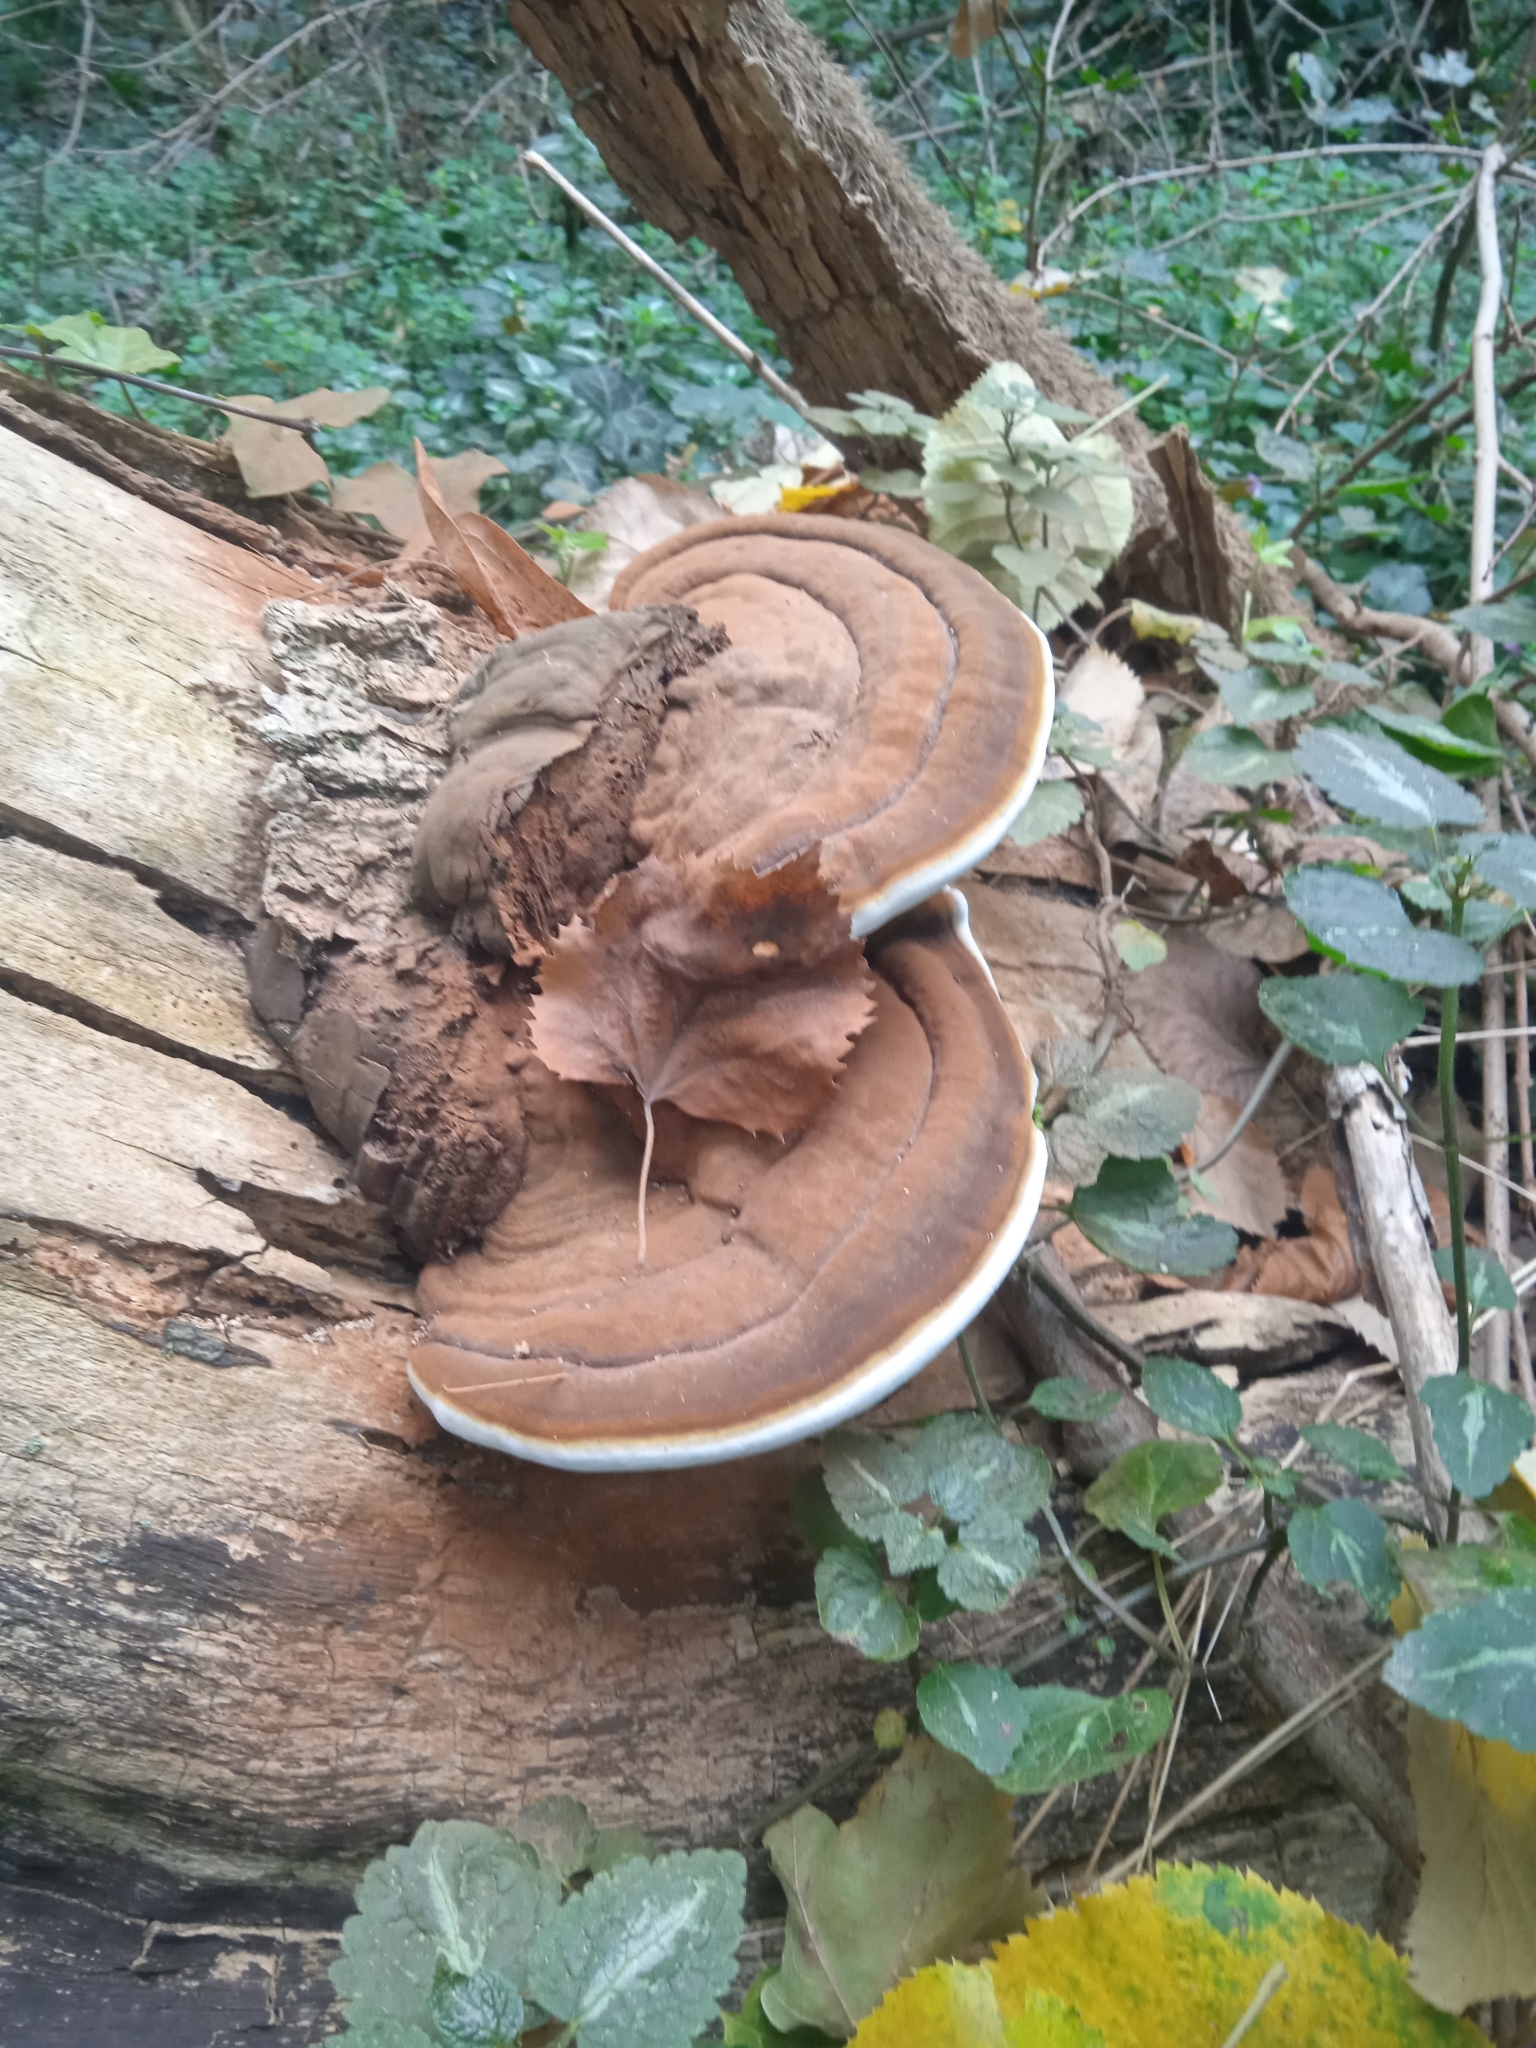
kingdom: Fungi
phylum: Basidiomycota
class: Agaricomycetes
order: Polyporales
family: Polyporaceae
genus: Ganoderma
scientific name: Ganoderma applanatum
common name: Artist's bracket
